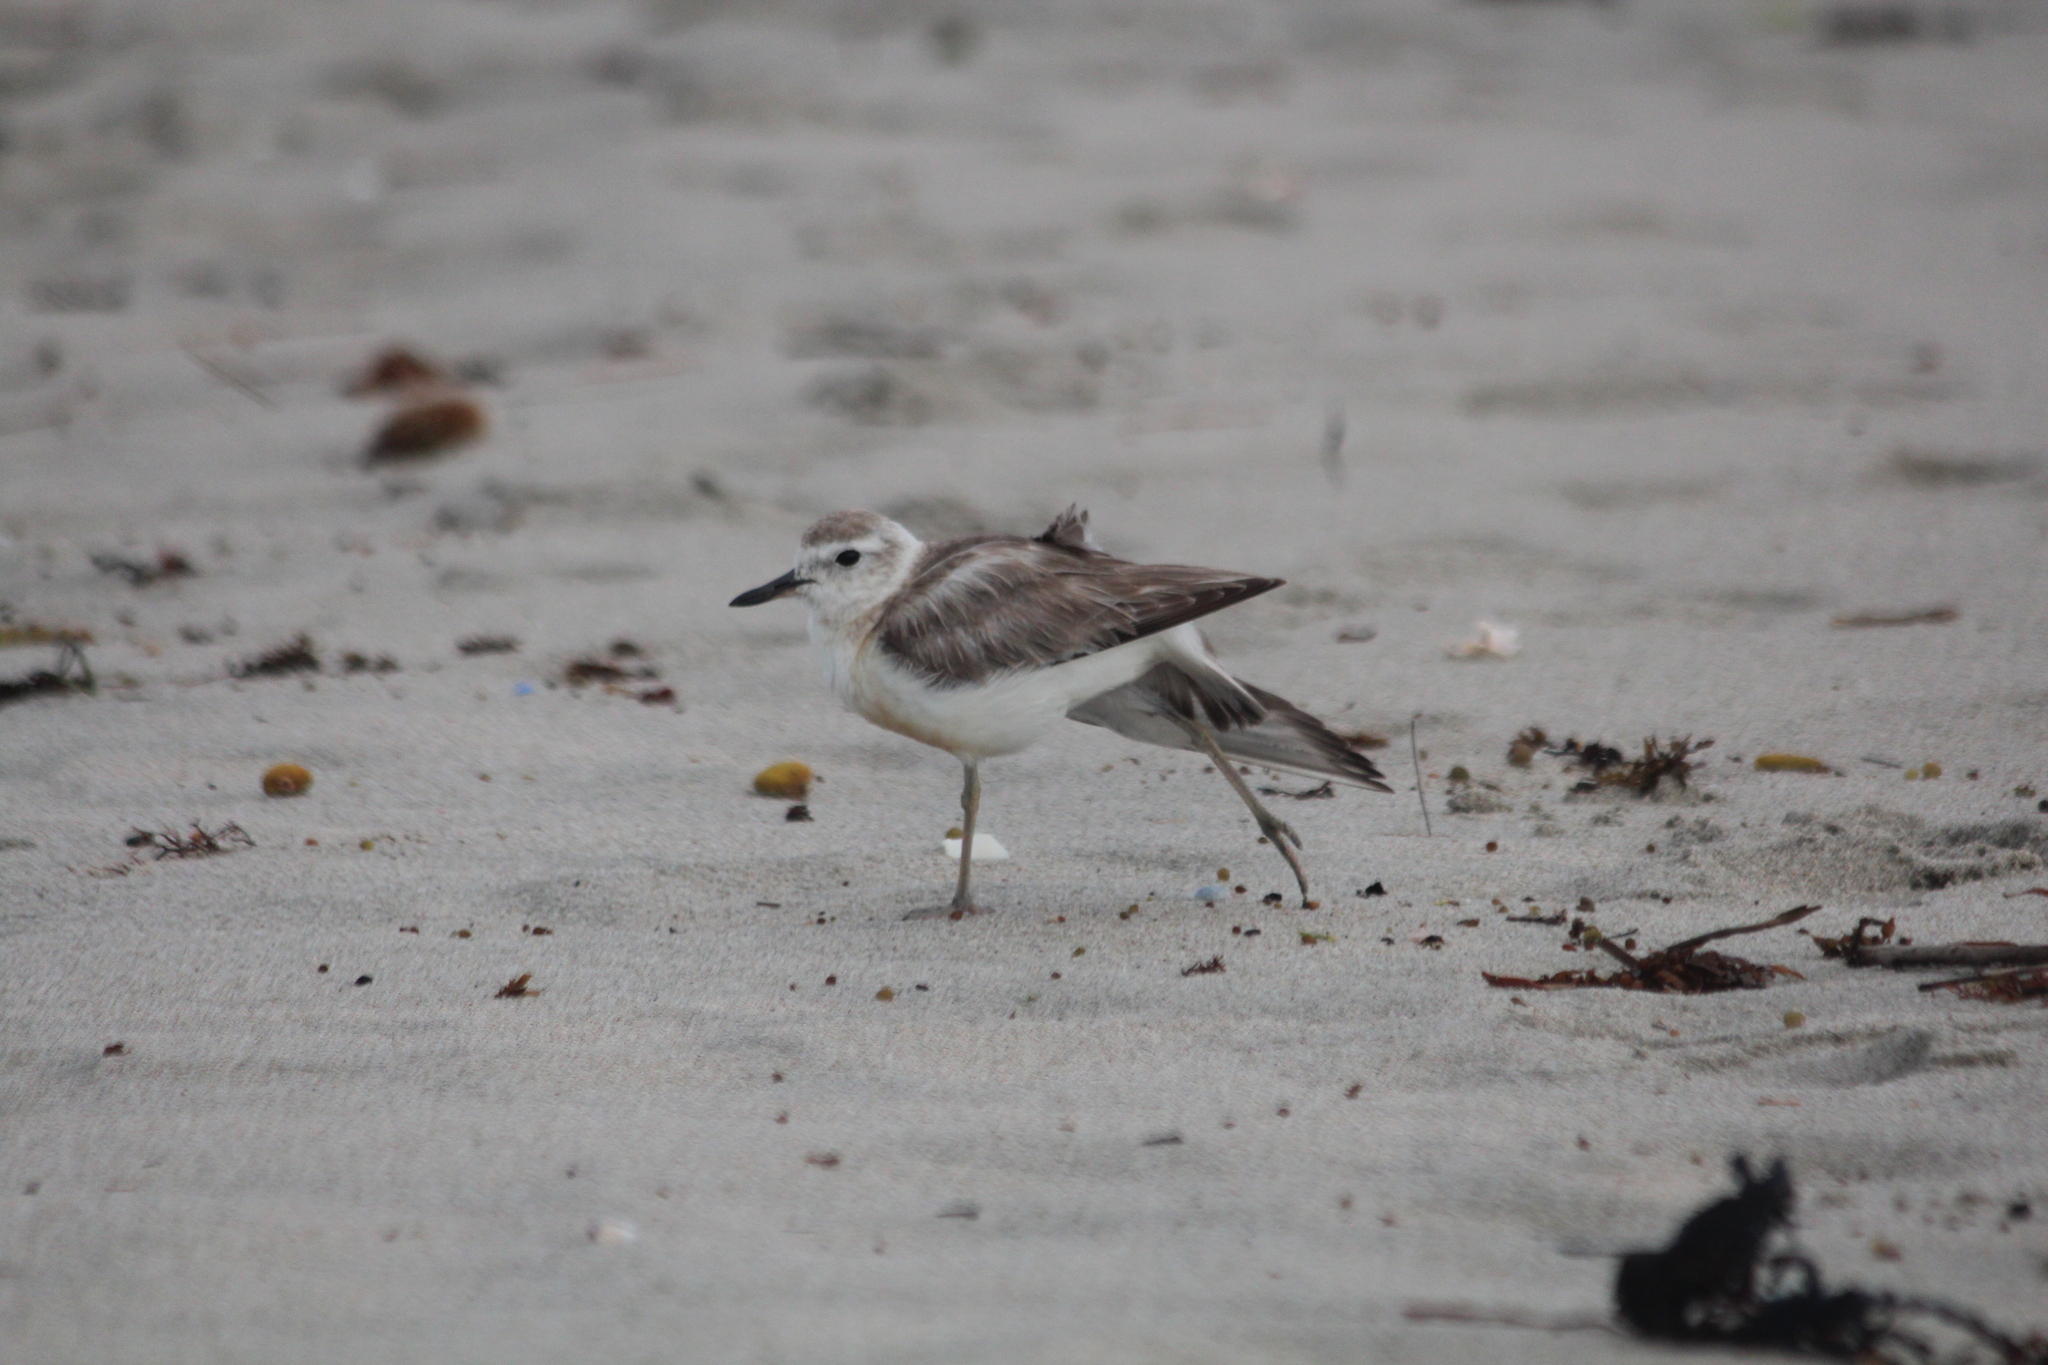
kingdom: Animalia
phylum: Chordata
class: Aves
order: Charadriiformes
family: Charadriidae
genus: Anarhynchus
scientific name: Anarhynchus
